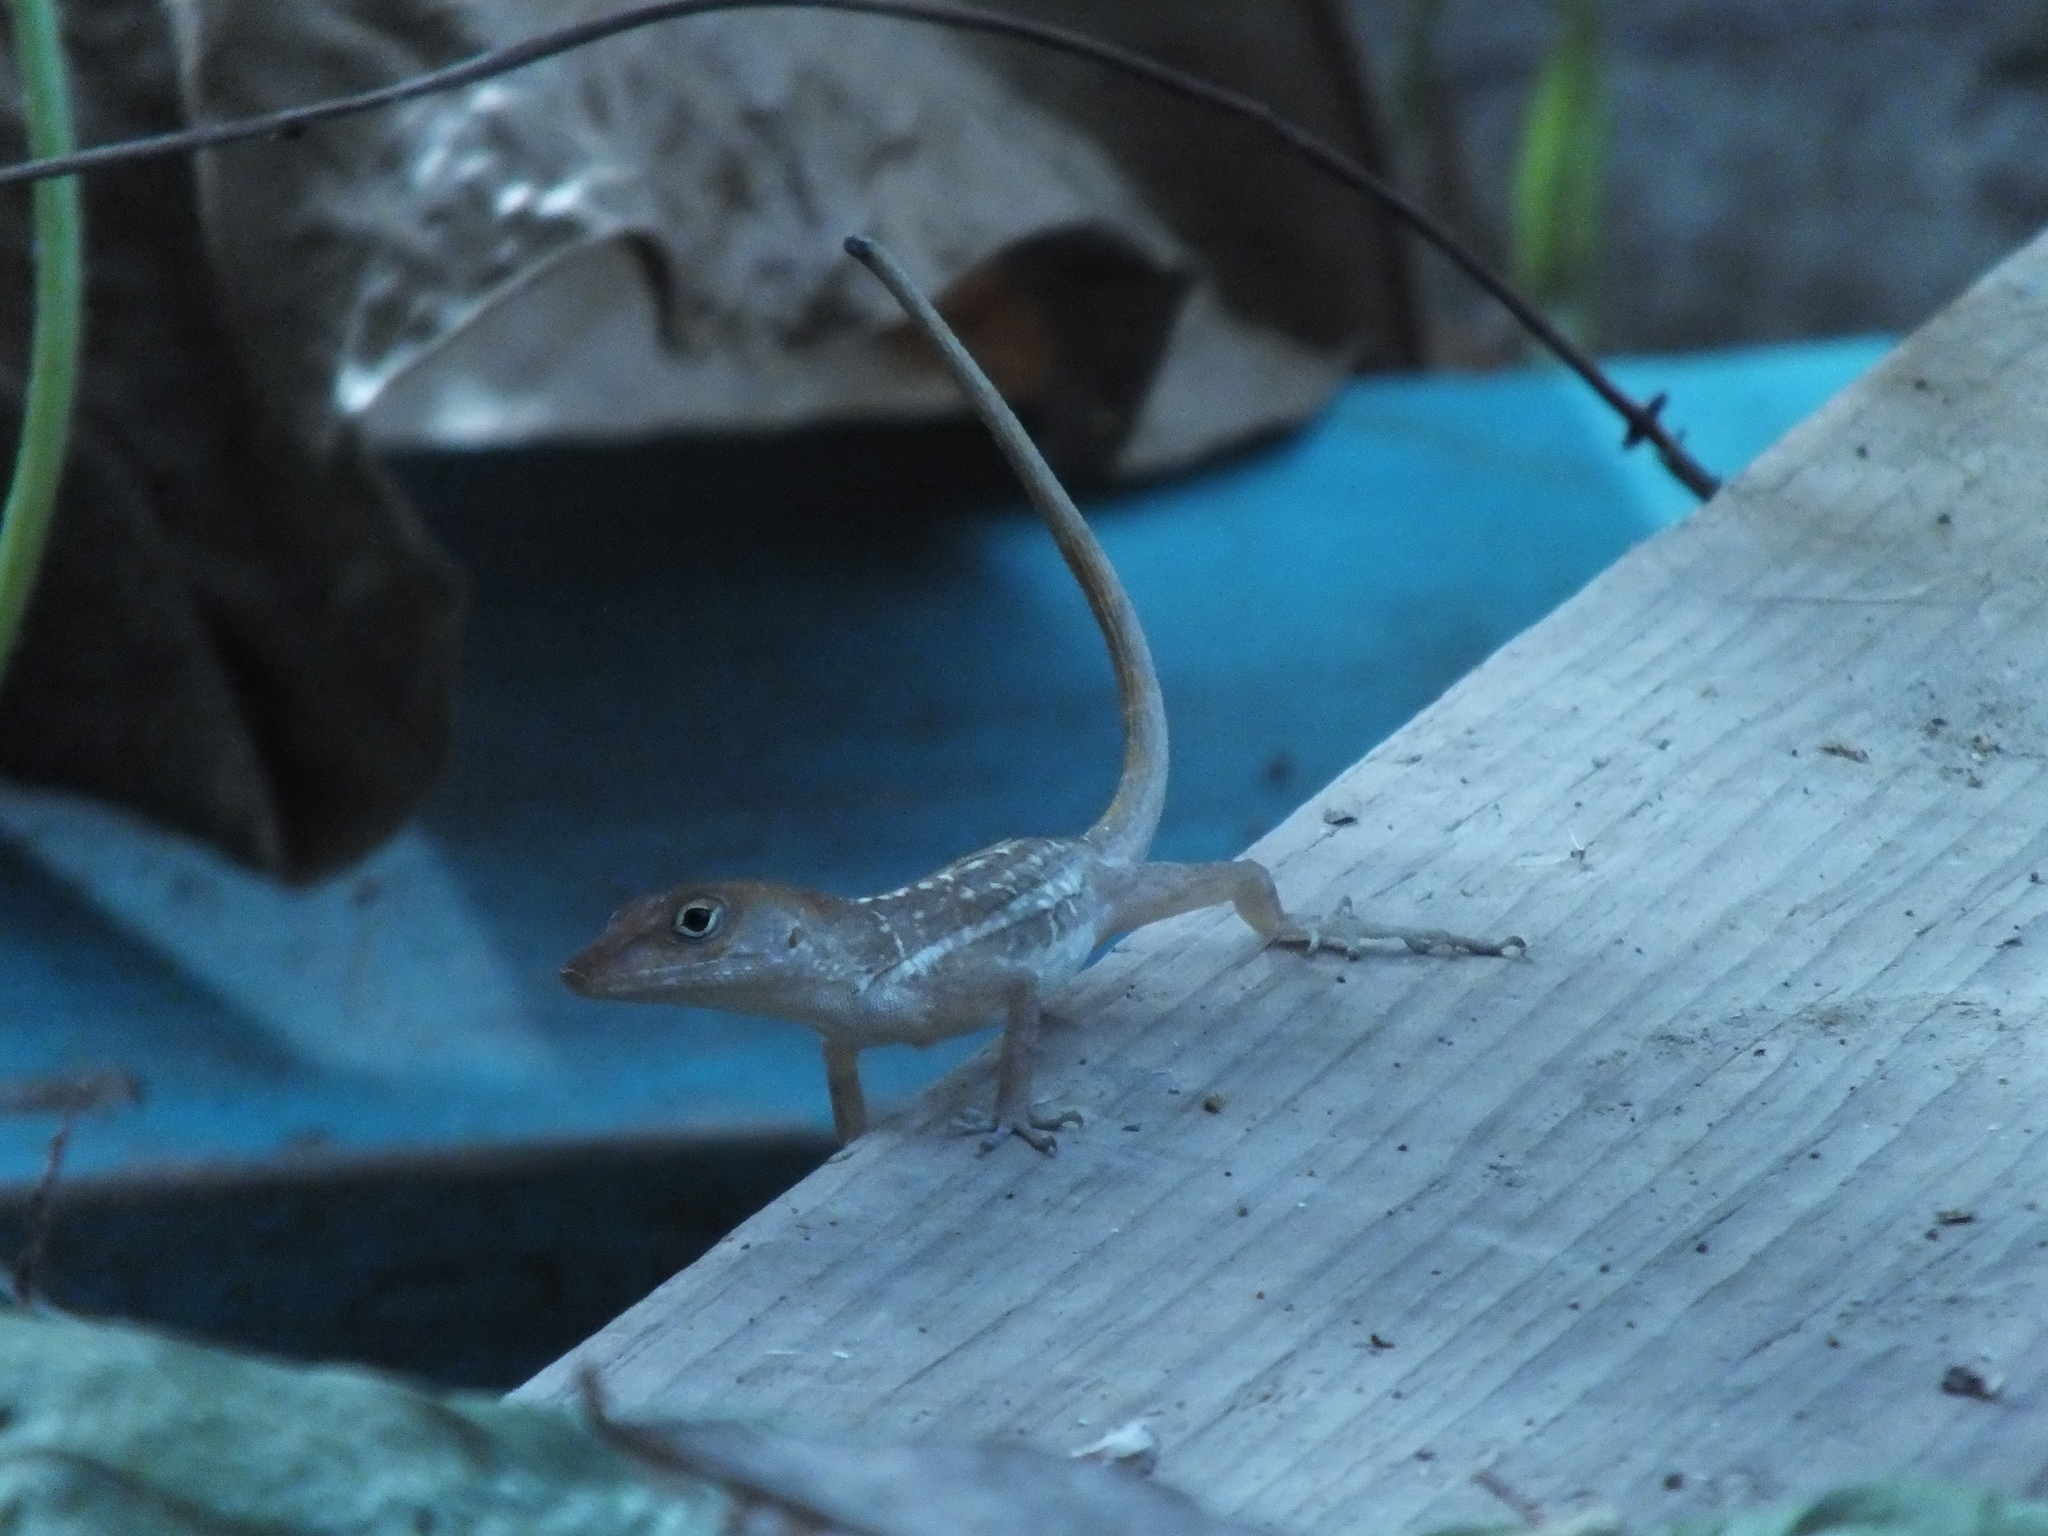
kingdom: Animalia
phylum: Chordata
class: Squamata
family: Dactyloidae
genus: Anolis
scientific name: Anolis sagrei
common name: Brown anole
